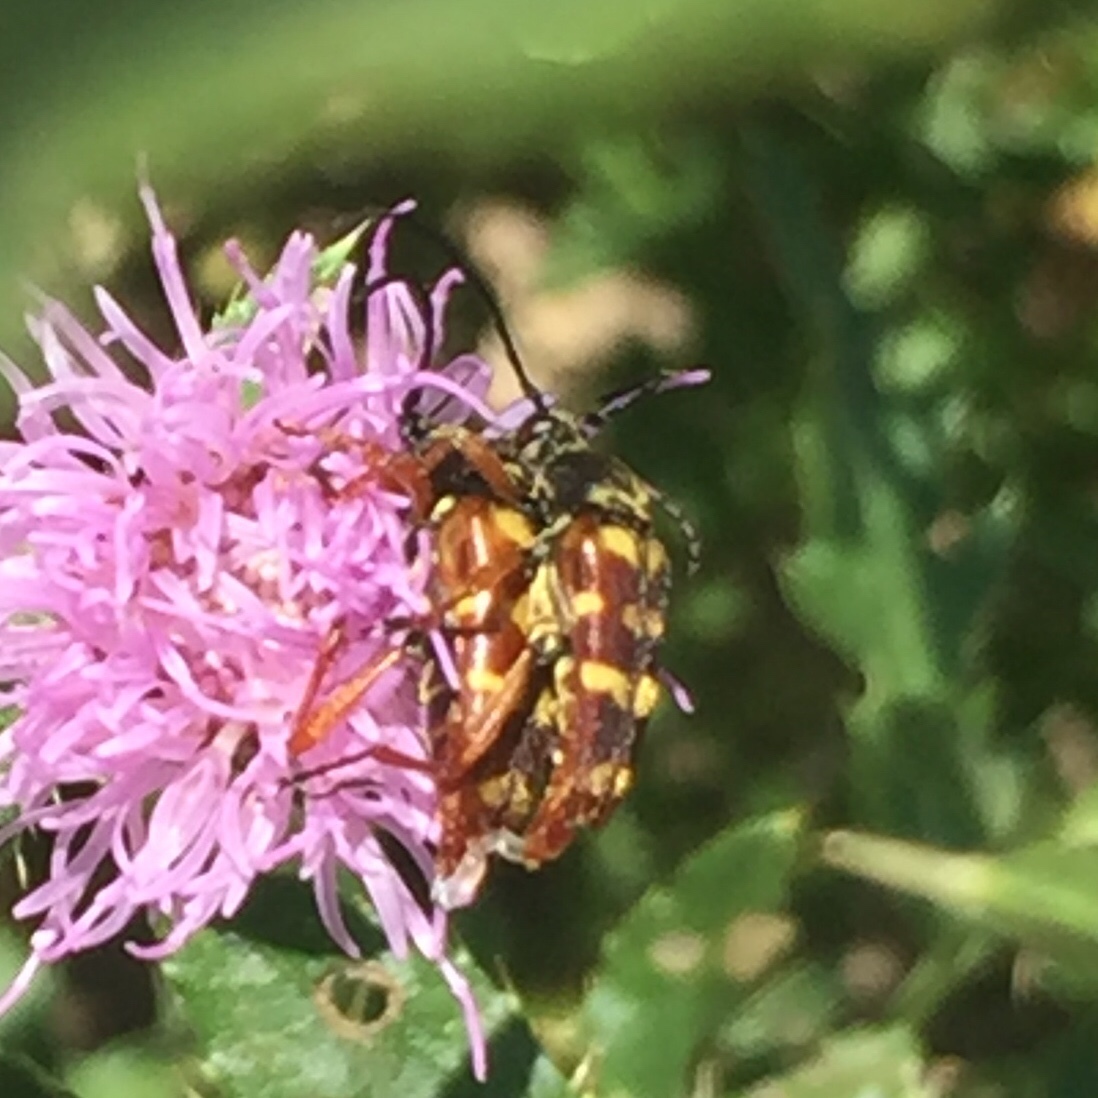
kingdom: Animalia
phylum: Arthropoda
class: Insecta
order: Coleoptera
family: Cerambycidae
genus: Typocerus
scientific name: Typocerus velutinus
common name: Banded longhorn beetle
